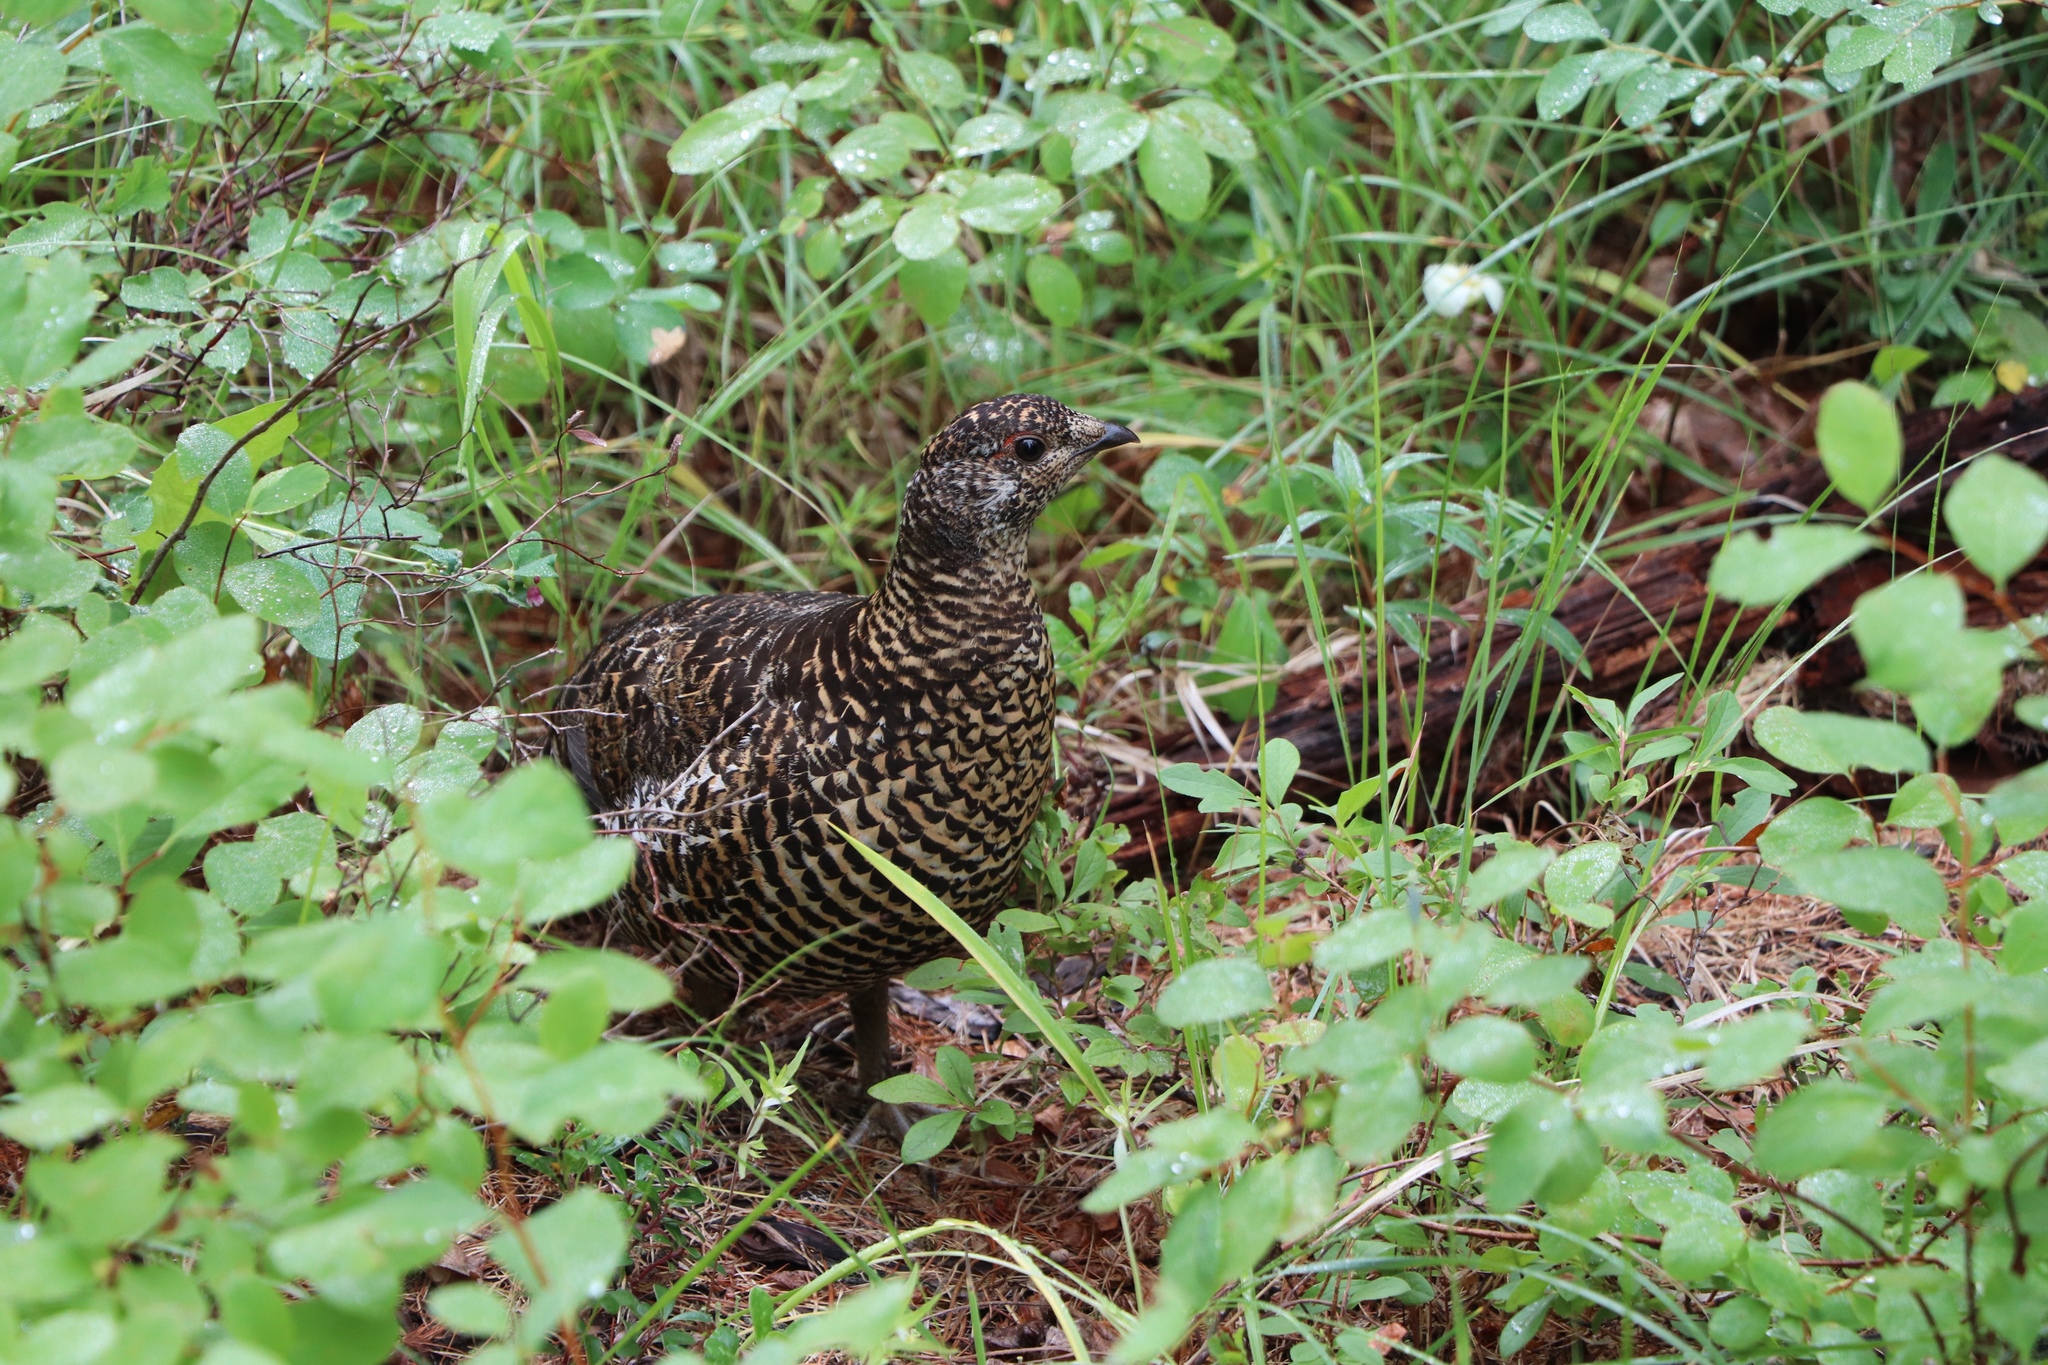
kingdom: Animalia
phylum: Chordata
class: Aves
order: Galliformes
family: Phasianidae
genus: Canachites
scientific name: Canachites canadensis
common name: Spruce grouse
